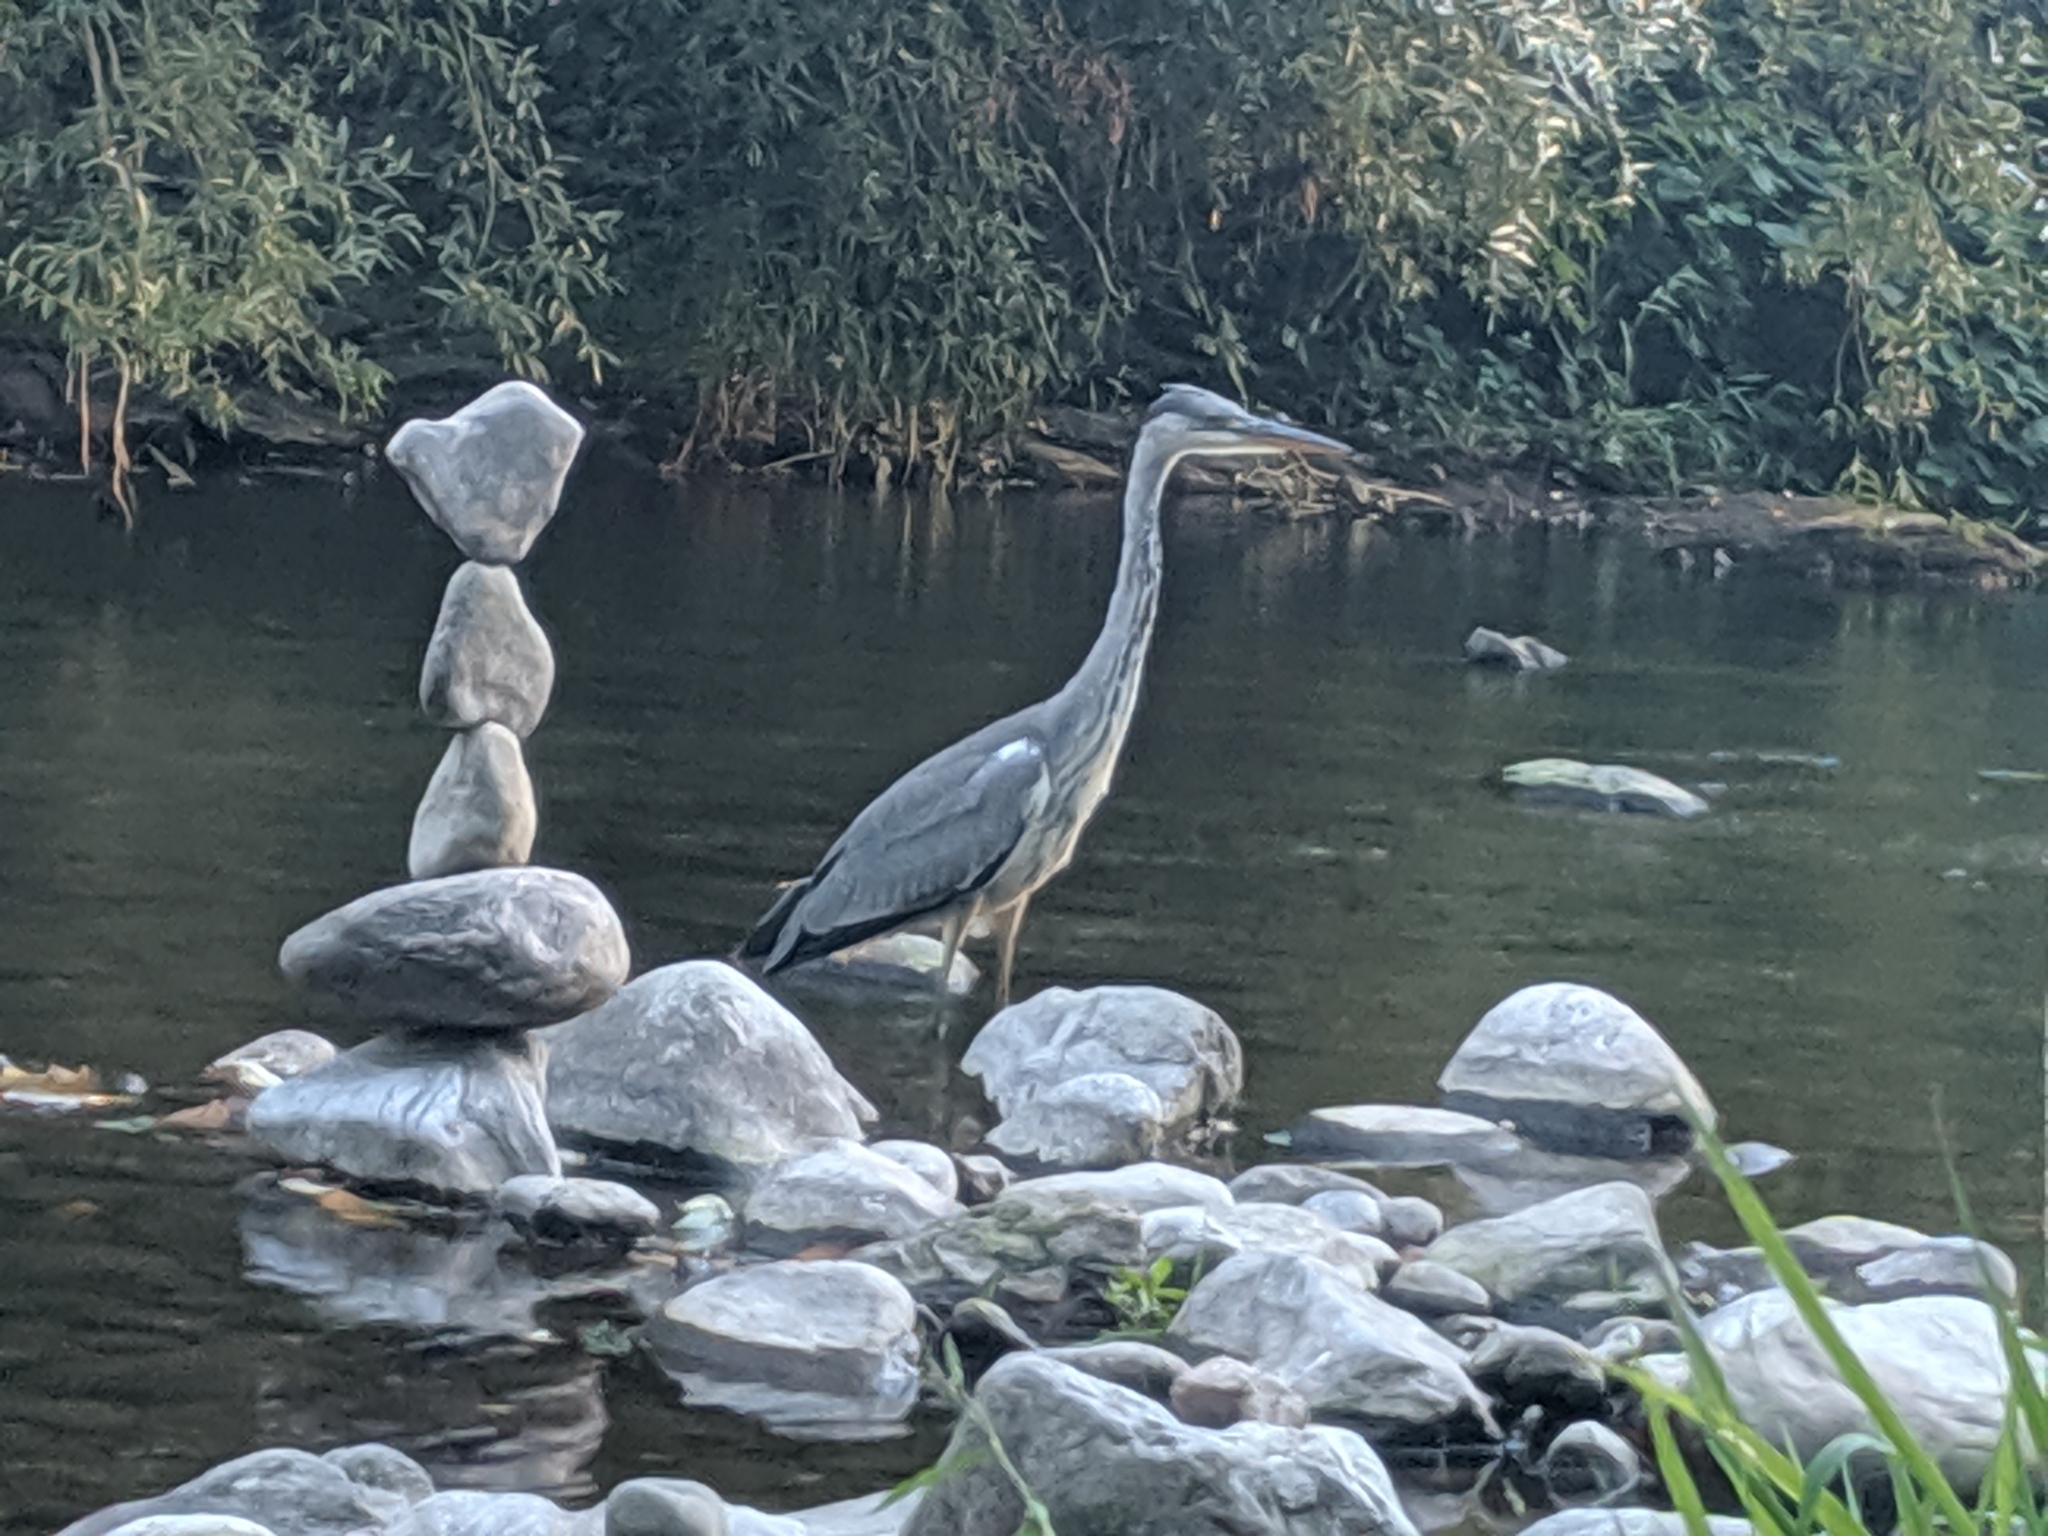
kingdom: Animalia
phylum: Chordata
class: Aves
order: Pelecaniformes
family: Ardeidae
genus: Ardea
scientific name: Ardea cinerea
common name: Grey heron
